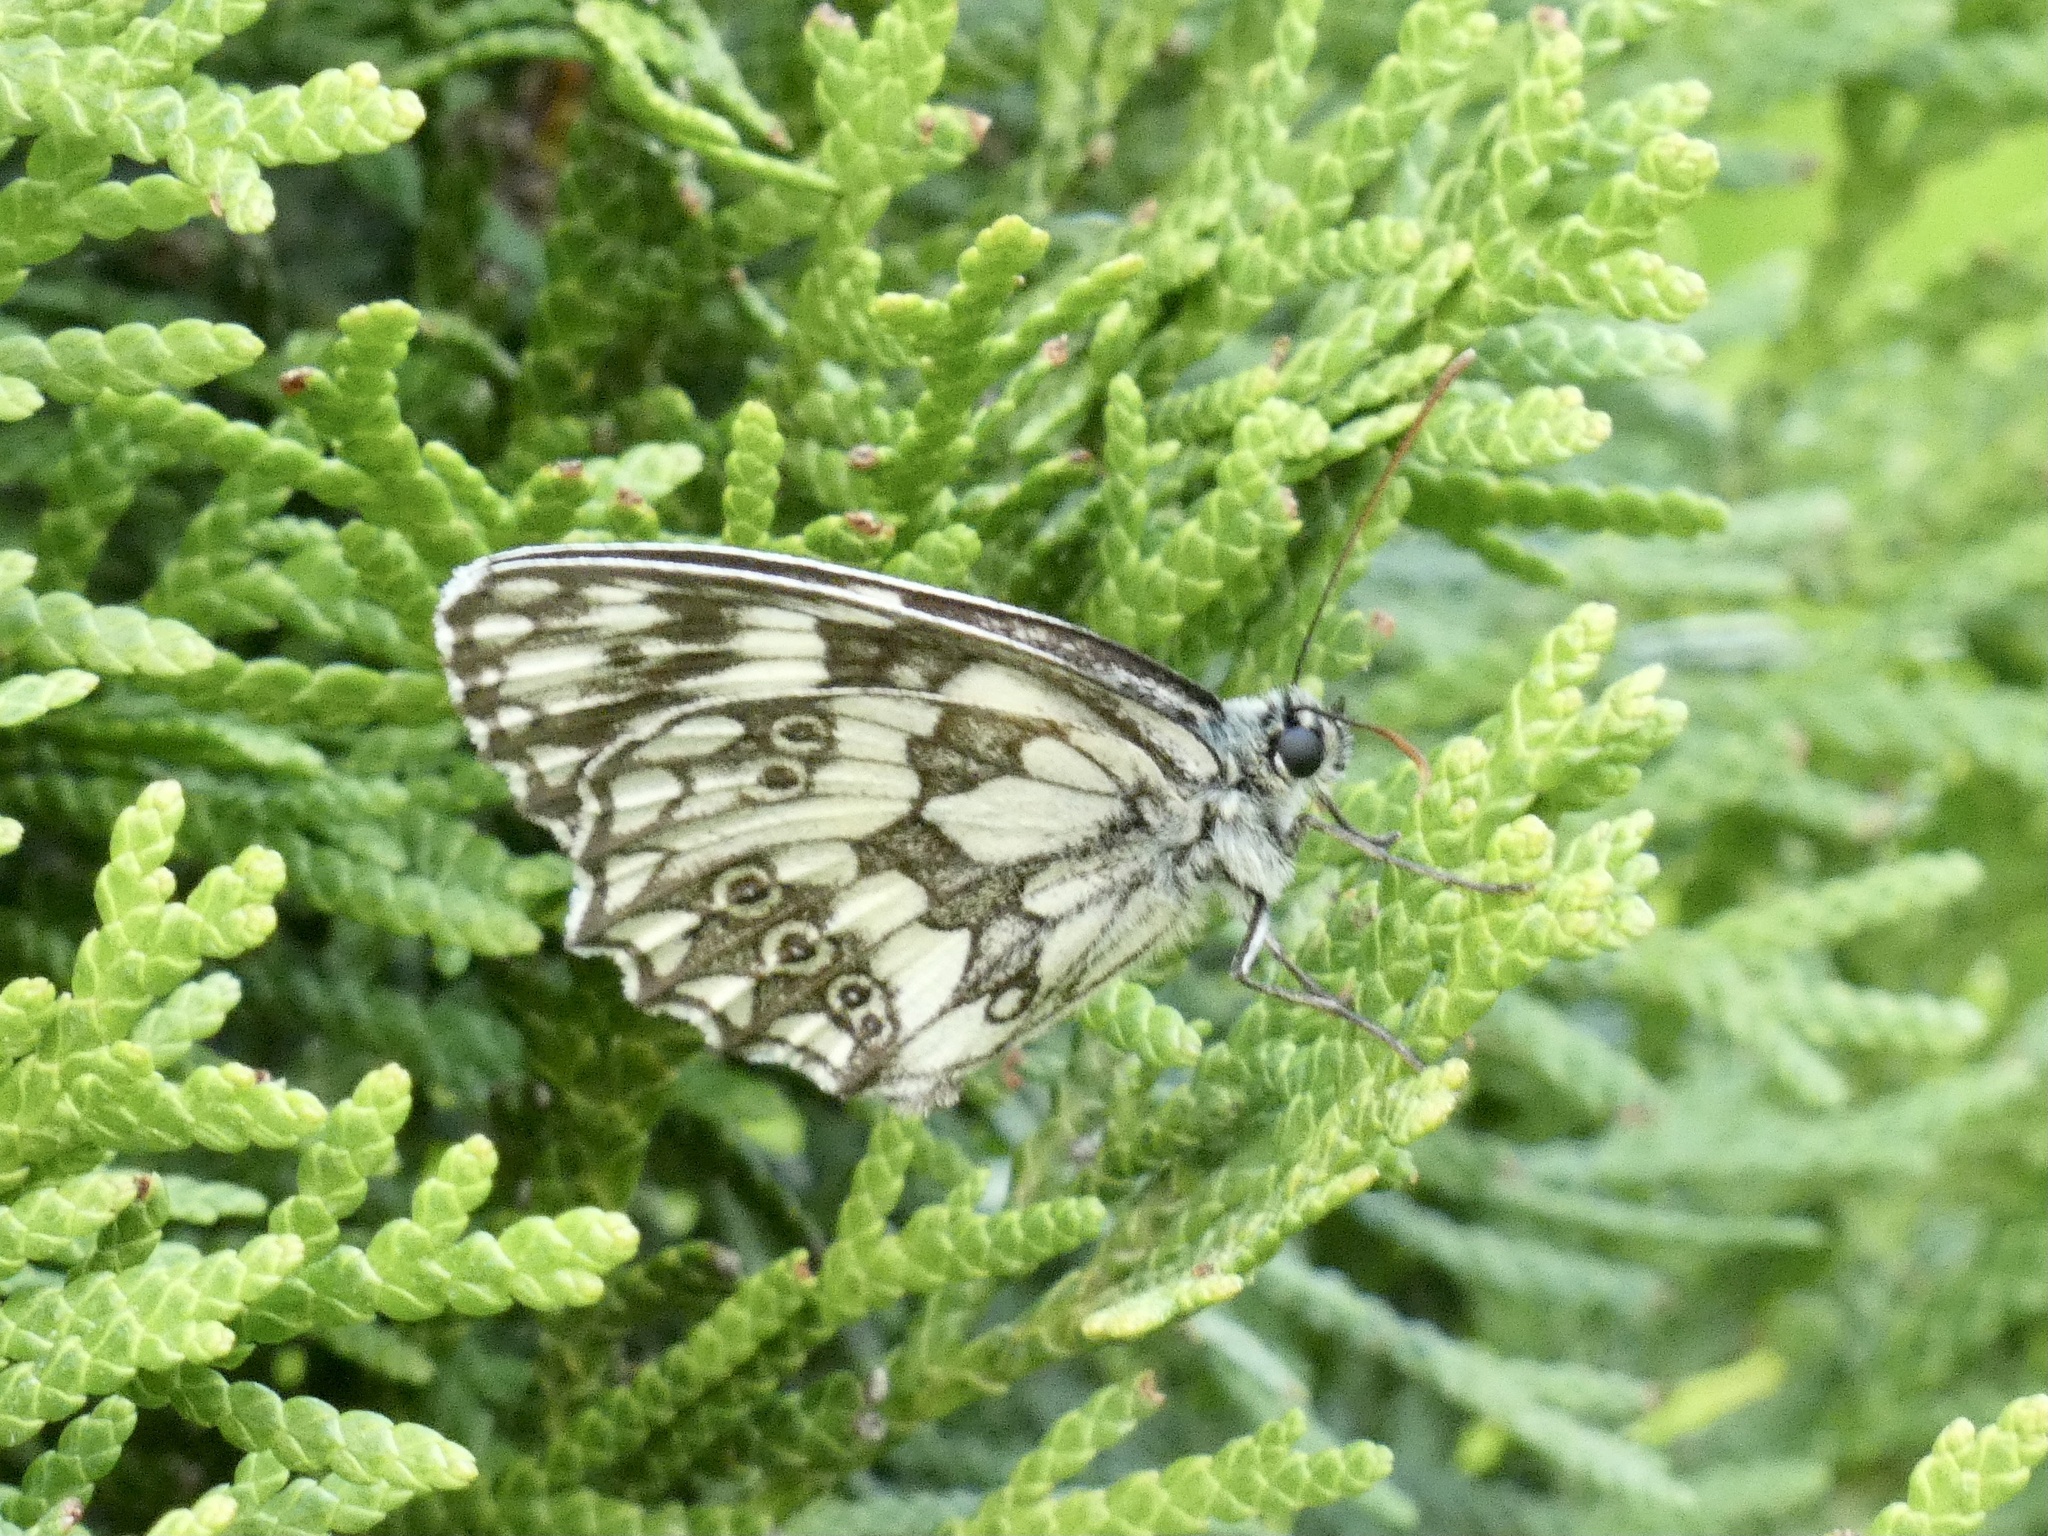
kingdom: Animalia
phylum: Arthropoda
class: Insecta
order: Lepidoptera
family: Nymphalidae
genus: Melanargia
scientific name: Melanargia galathea
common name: Marbled white
